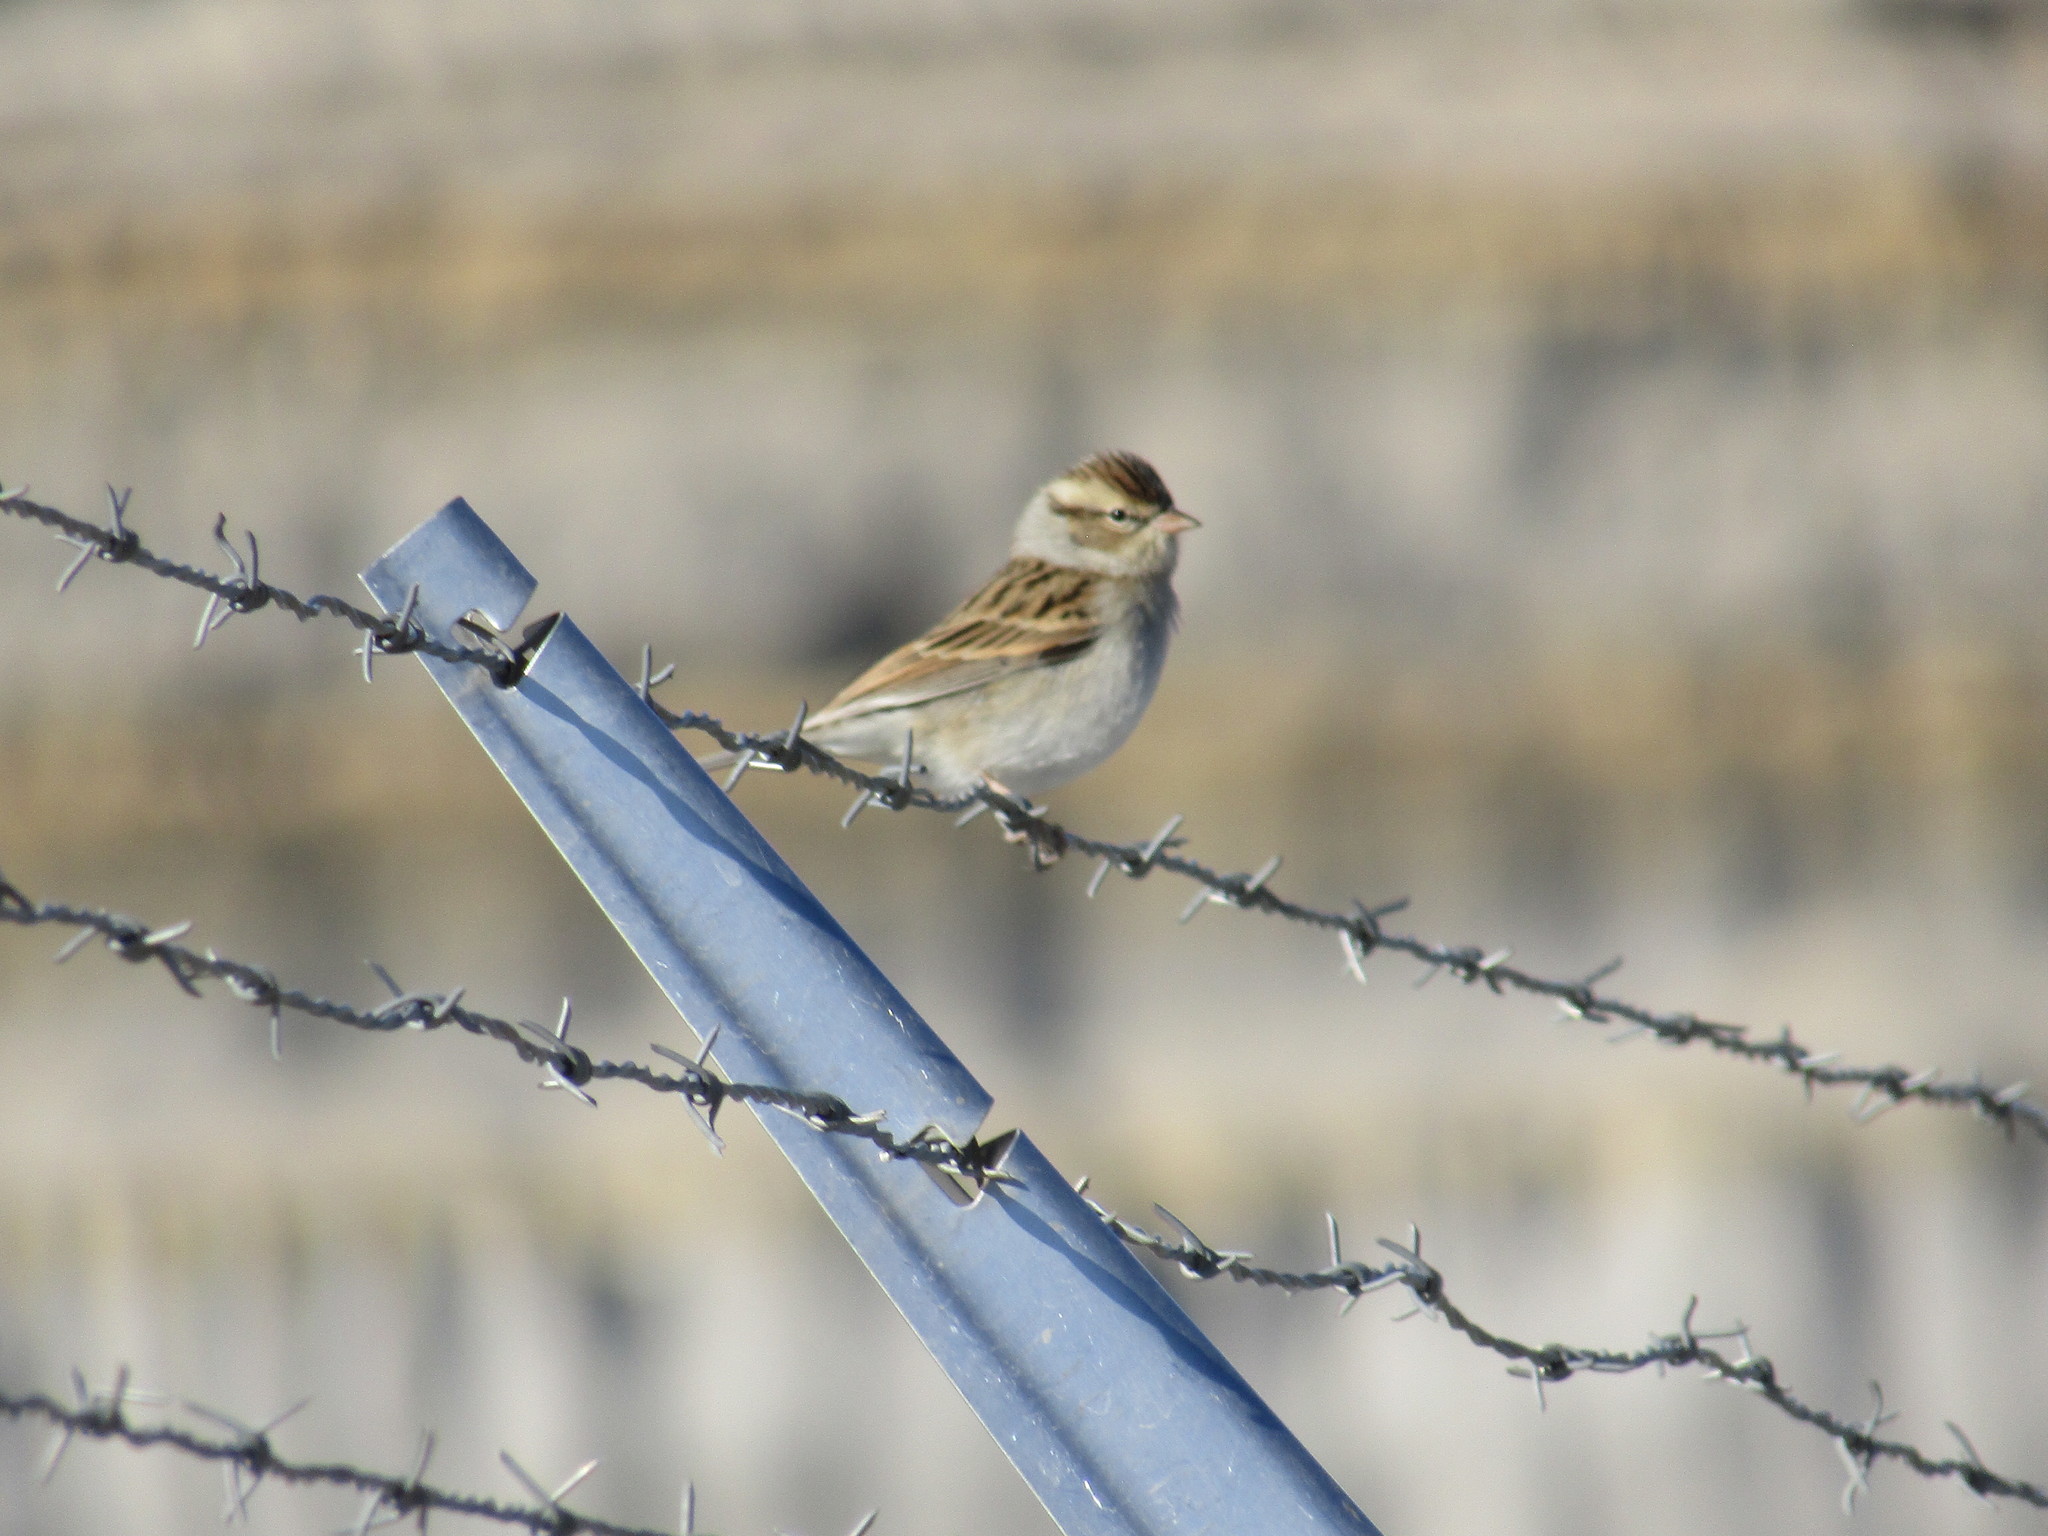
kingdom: Animalia
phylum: Chordata
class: Aves
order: Passeriformes
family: Passerellidae
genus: Spizella
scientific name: Spizella passerina
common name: Chipping sparrow
